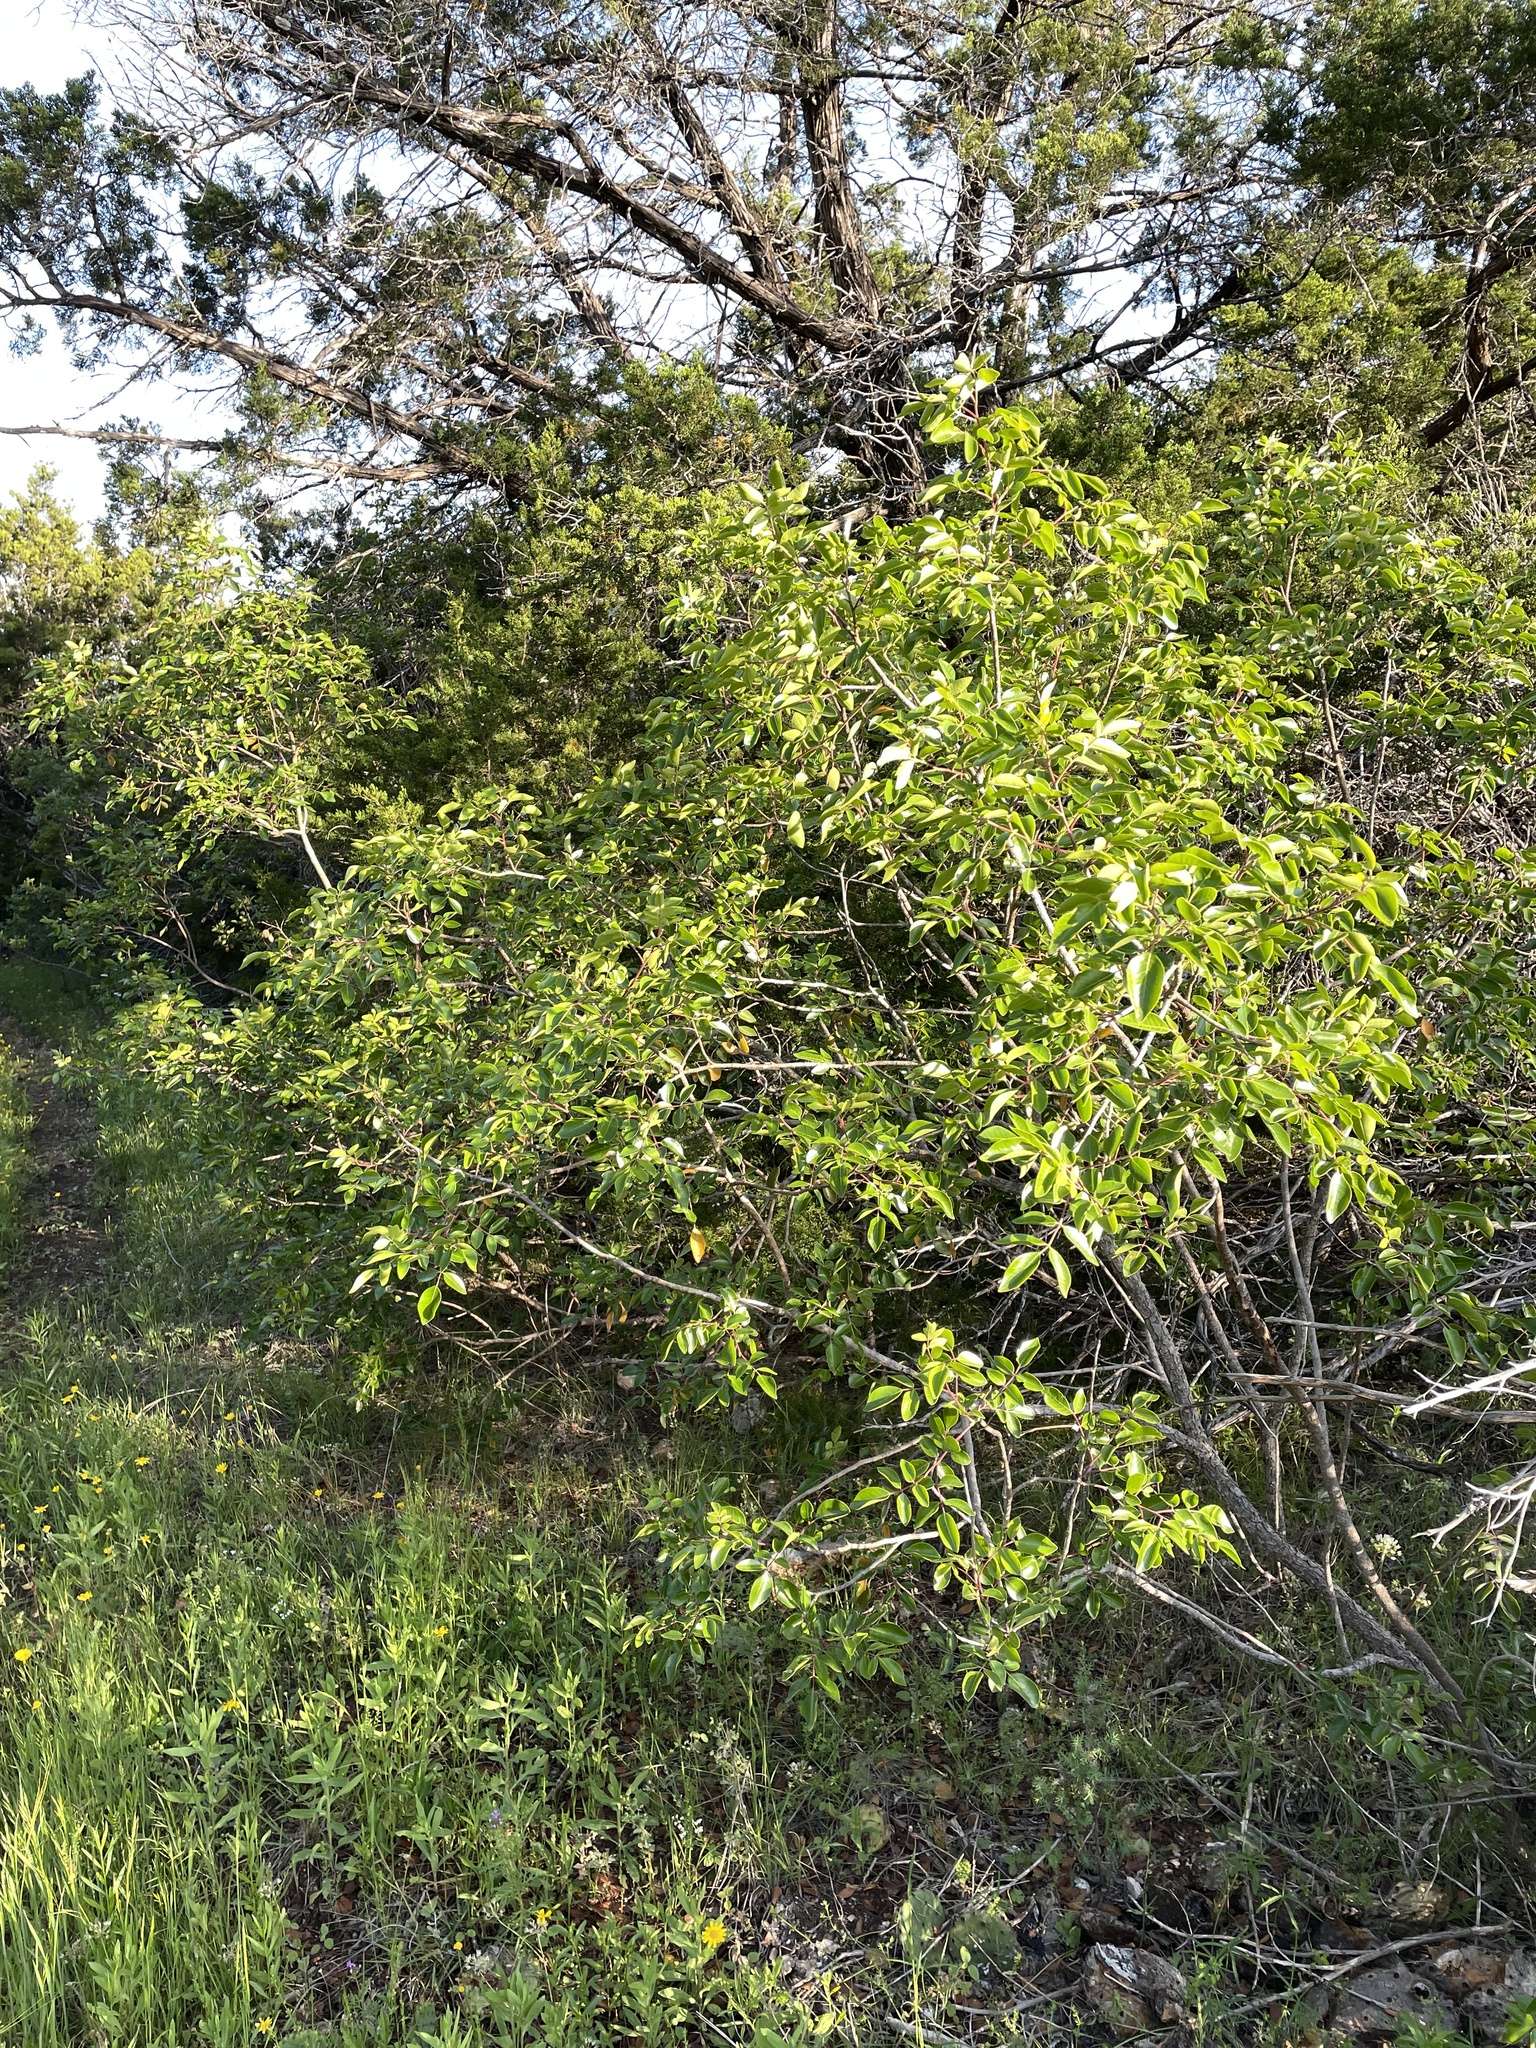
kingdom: Plantae
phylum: Tracheophyta
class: Magnoliopsida
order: Sapindales
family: Anacardiaceae
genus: Rhus
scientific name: Rhus virens
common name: Evergreen sumac
